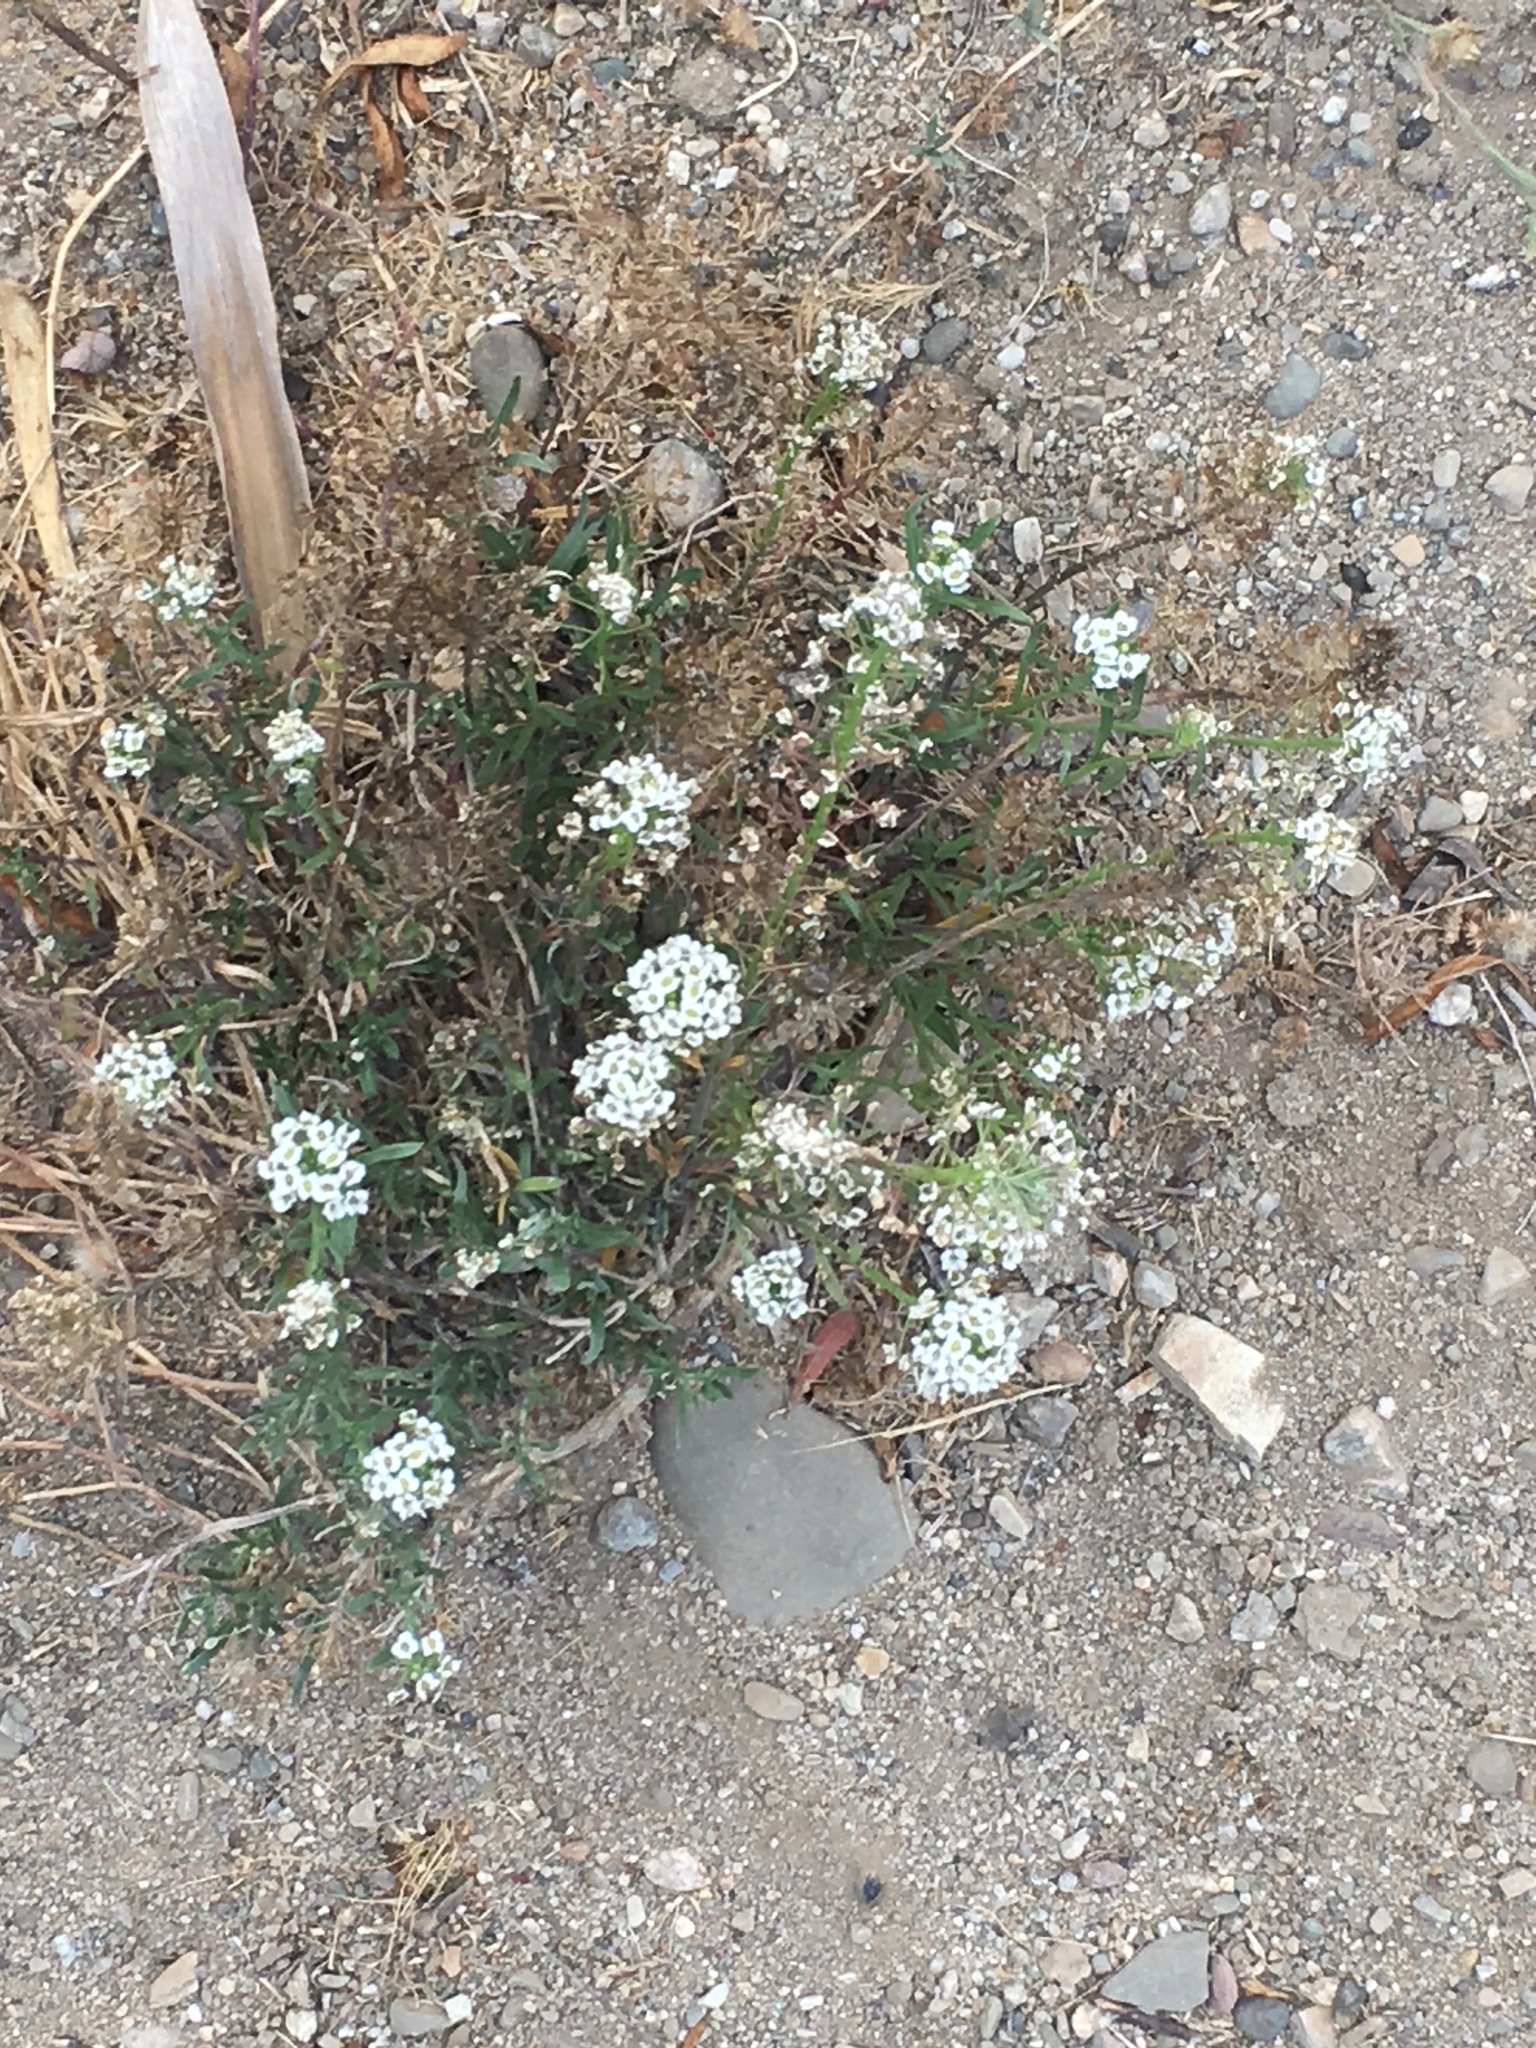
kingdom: Plantae
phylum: Tracheophyta
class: Magnoliopsida
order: Brassicales
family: Brassicaceae
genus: Lobularia
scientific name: Lobularia maritima
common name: Sweet alison
